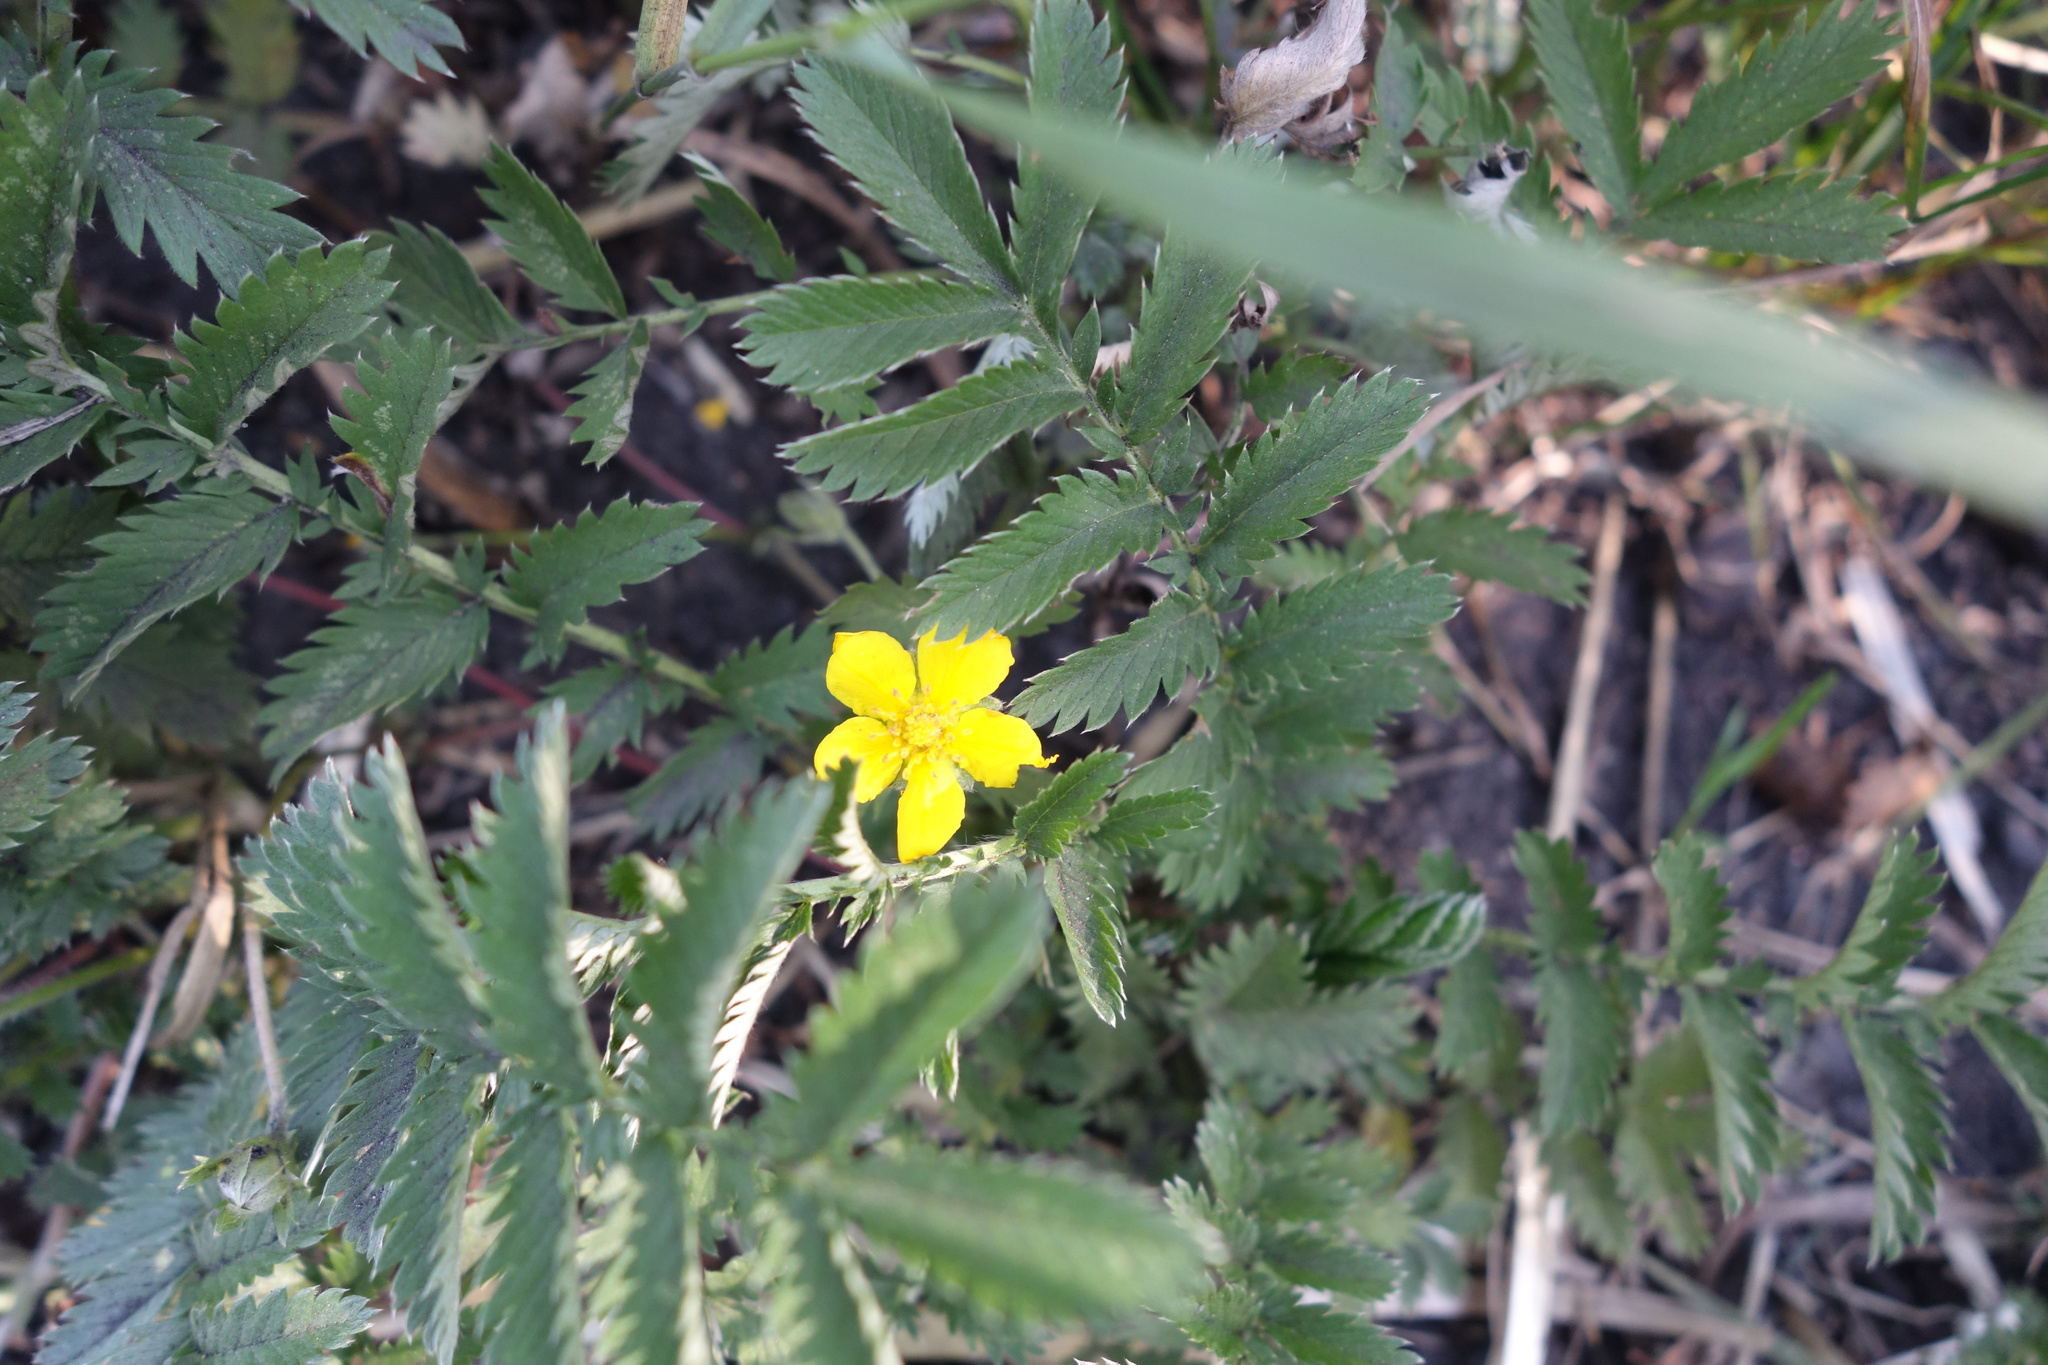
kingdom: Plantae
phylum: Tracheophyta
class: Magnoliopsida
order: Rosales
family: Rosaceae
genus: Argentina
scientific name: Argentina anserina
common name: Common silverweed
